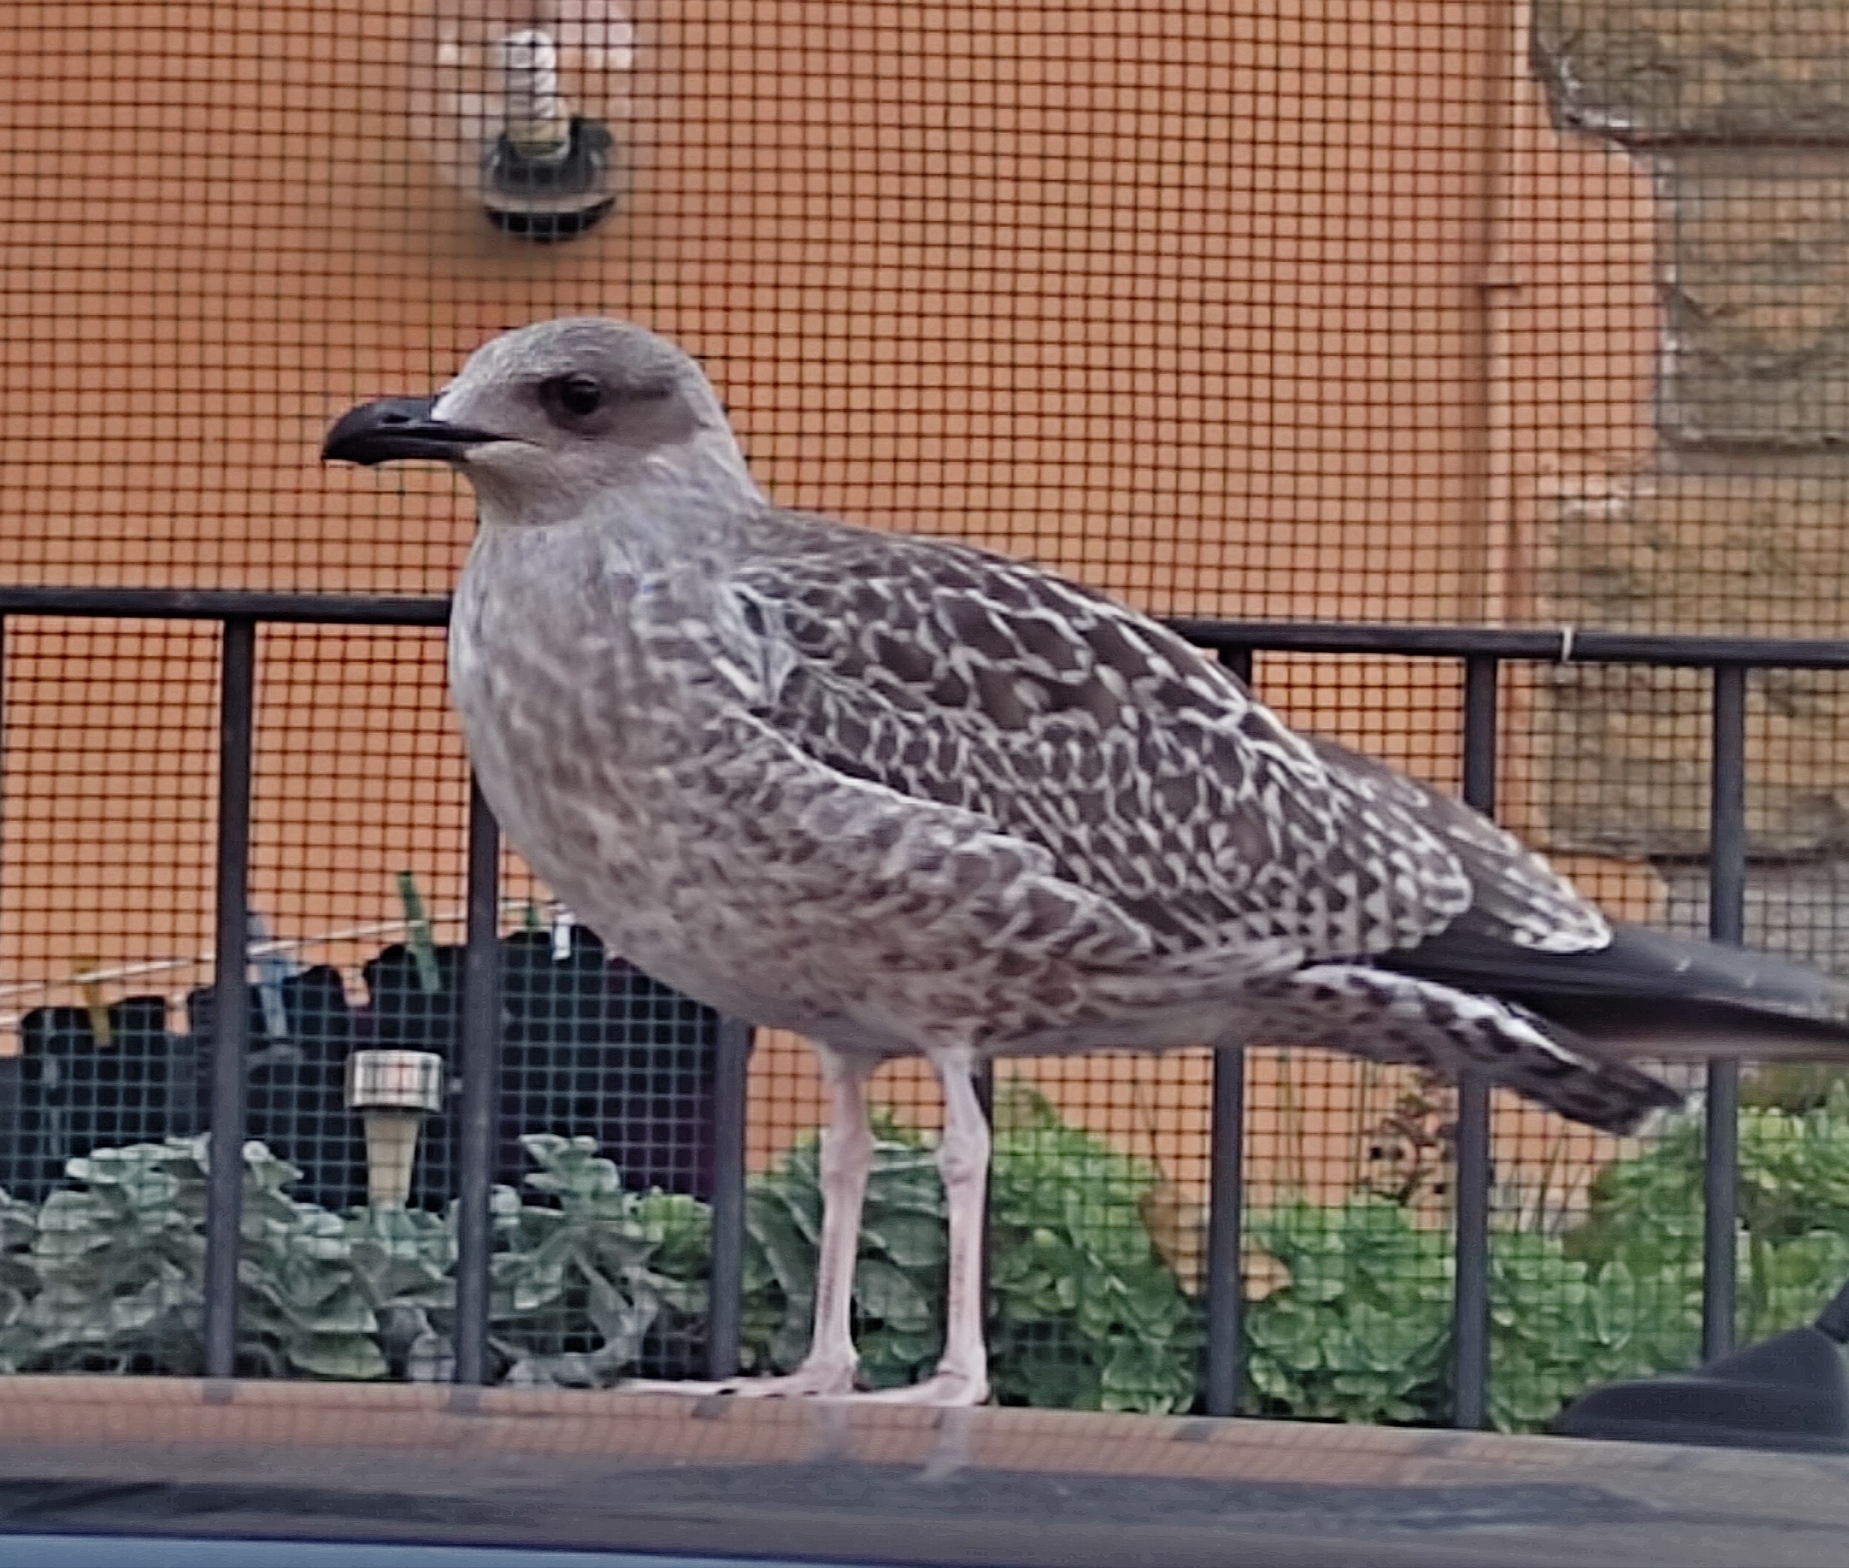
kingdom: Animalia
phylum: Chordata
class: Aves
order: Charadriiformes
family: Laridae
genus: Larus
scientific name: Larus michahellis
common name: Yellow-legged gull
